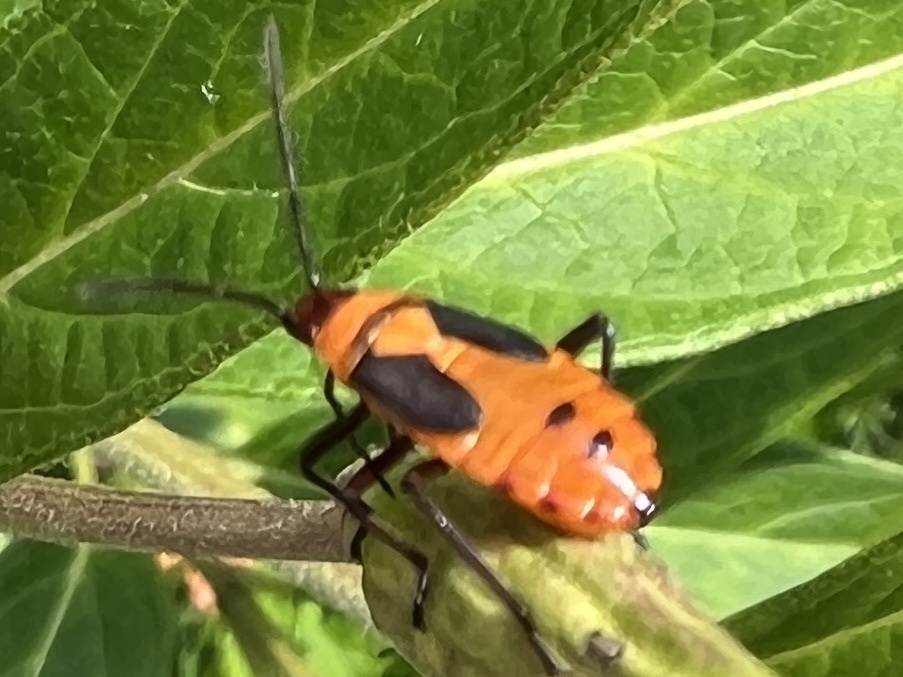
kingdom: Animalia
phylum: Arthropoda
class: Insecta
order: Hemiptera
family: Lygaeidae
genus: Oncopeltus
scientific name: Oncopeltus fasciatus
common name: Large milkweed bug
